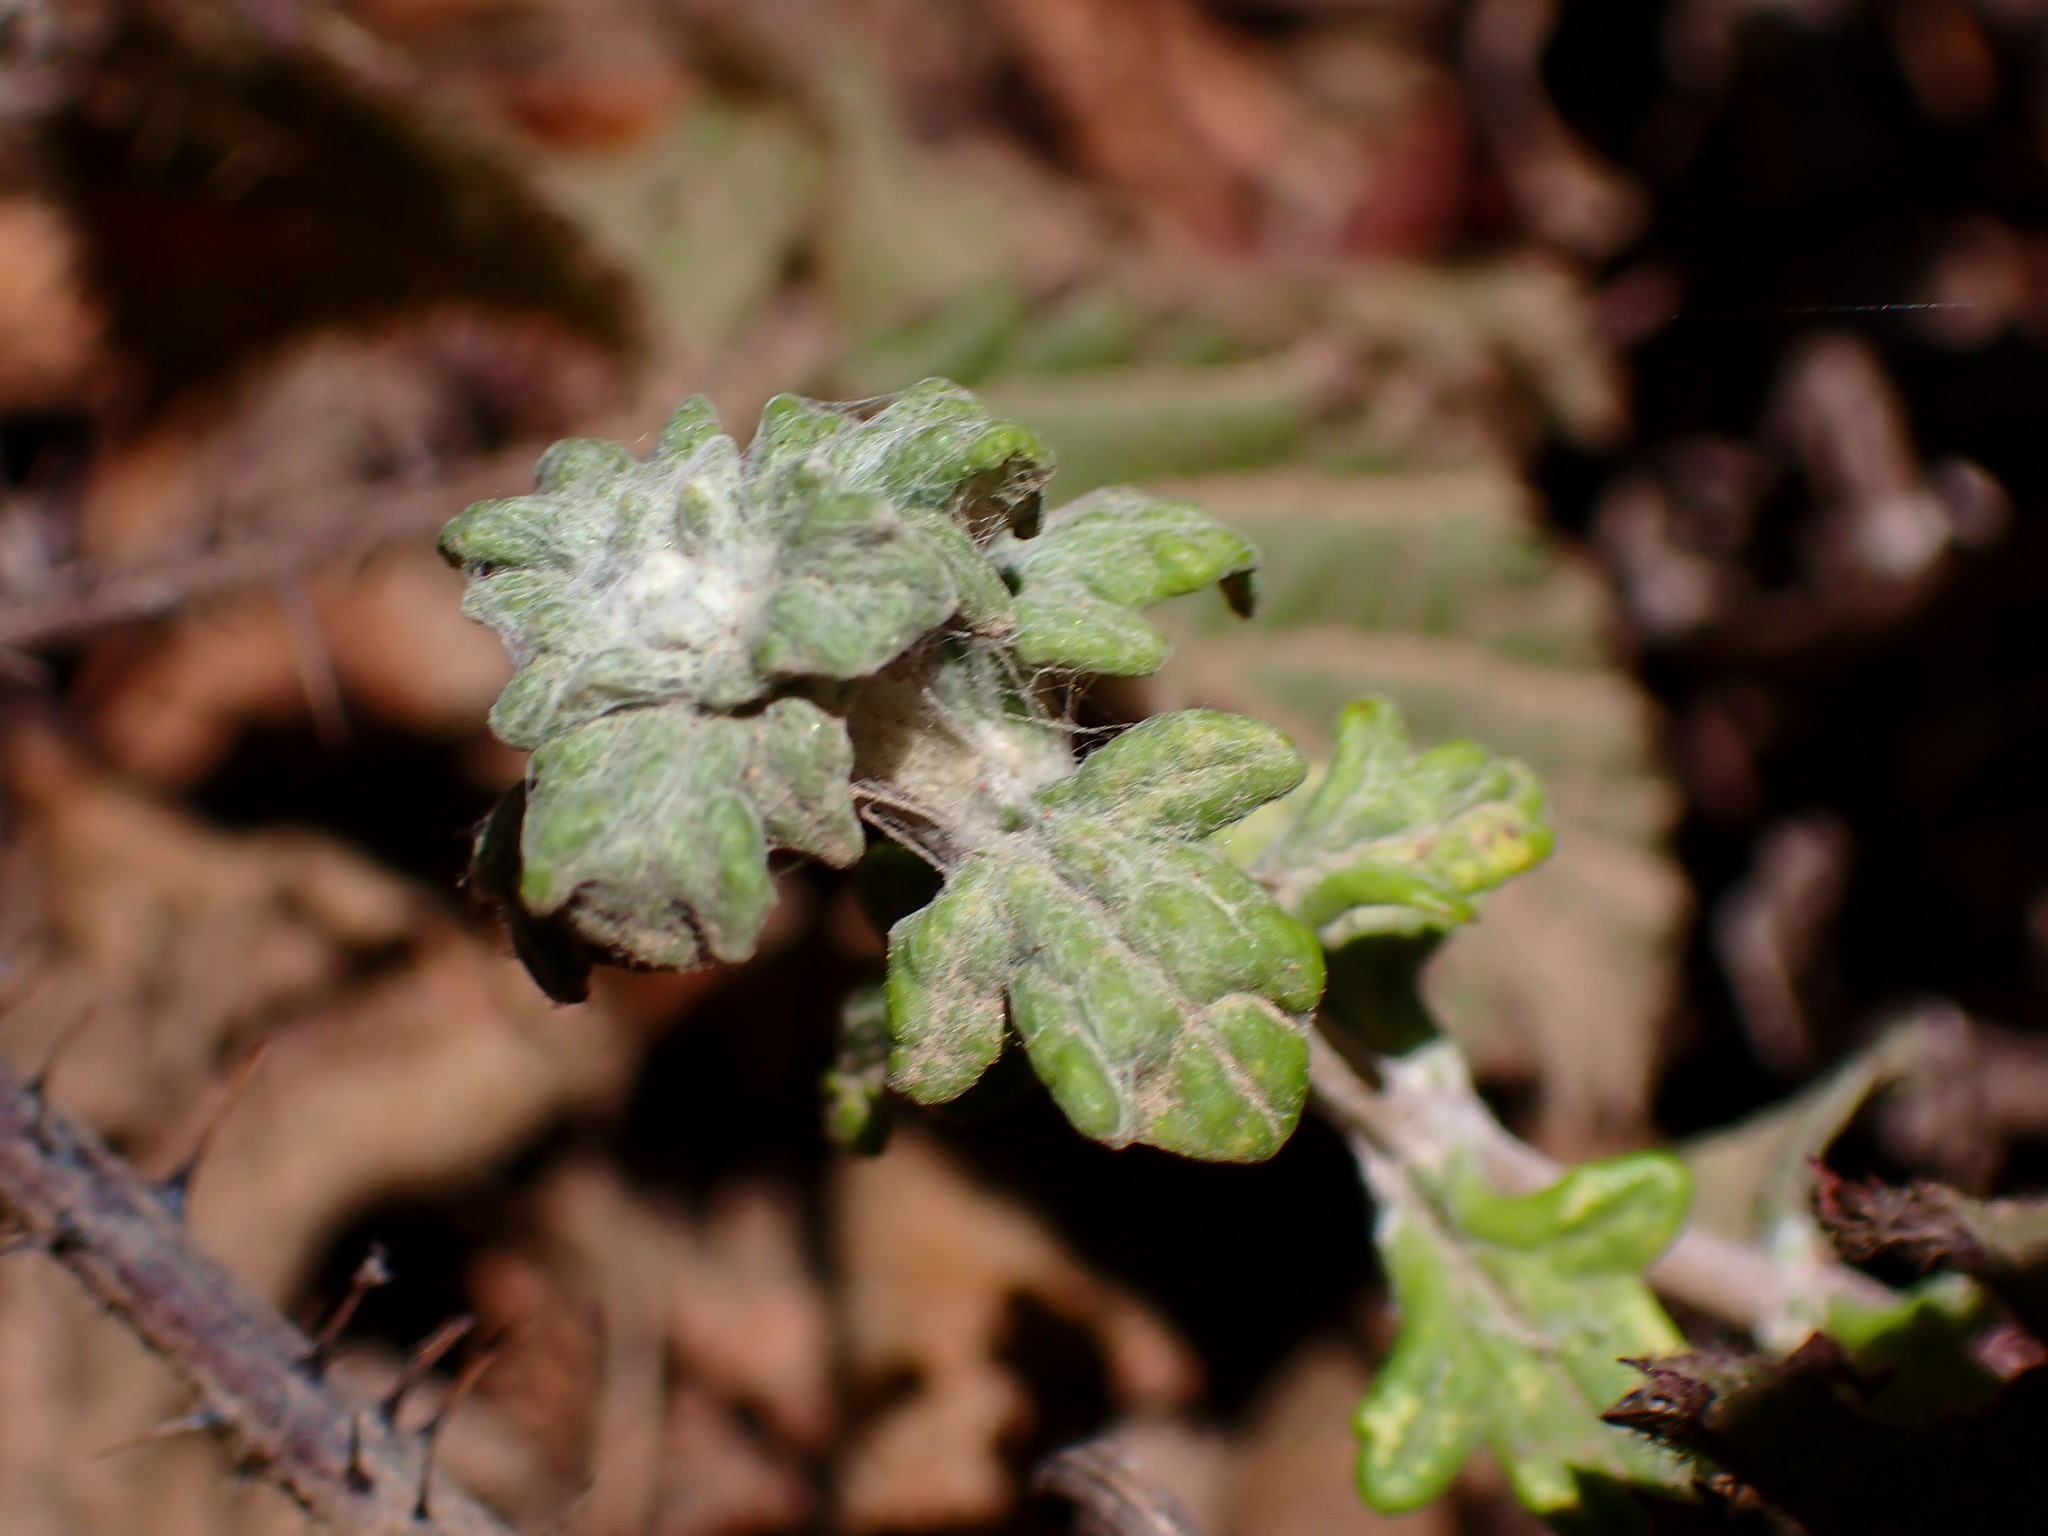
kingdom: Plantae
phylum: Tracheophyta
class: Magnoliopsida
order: Asterales
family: Asteraceae
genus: Eriophyllum
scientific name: Eriophyllum lanatum
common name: Common woolly-sunflower
